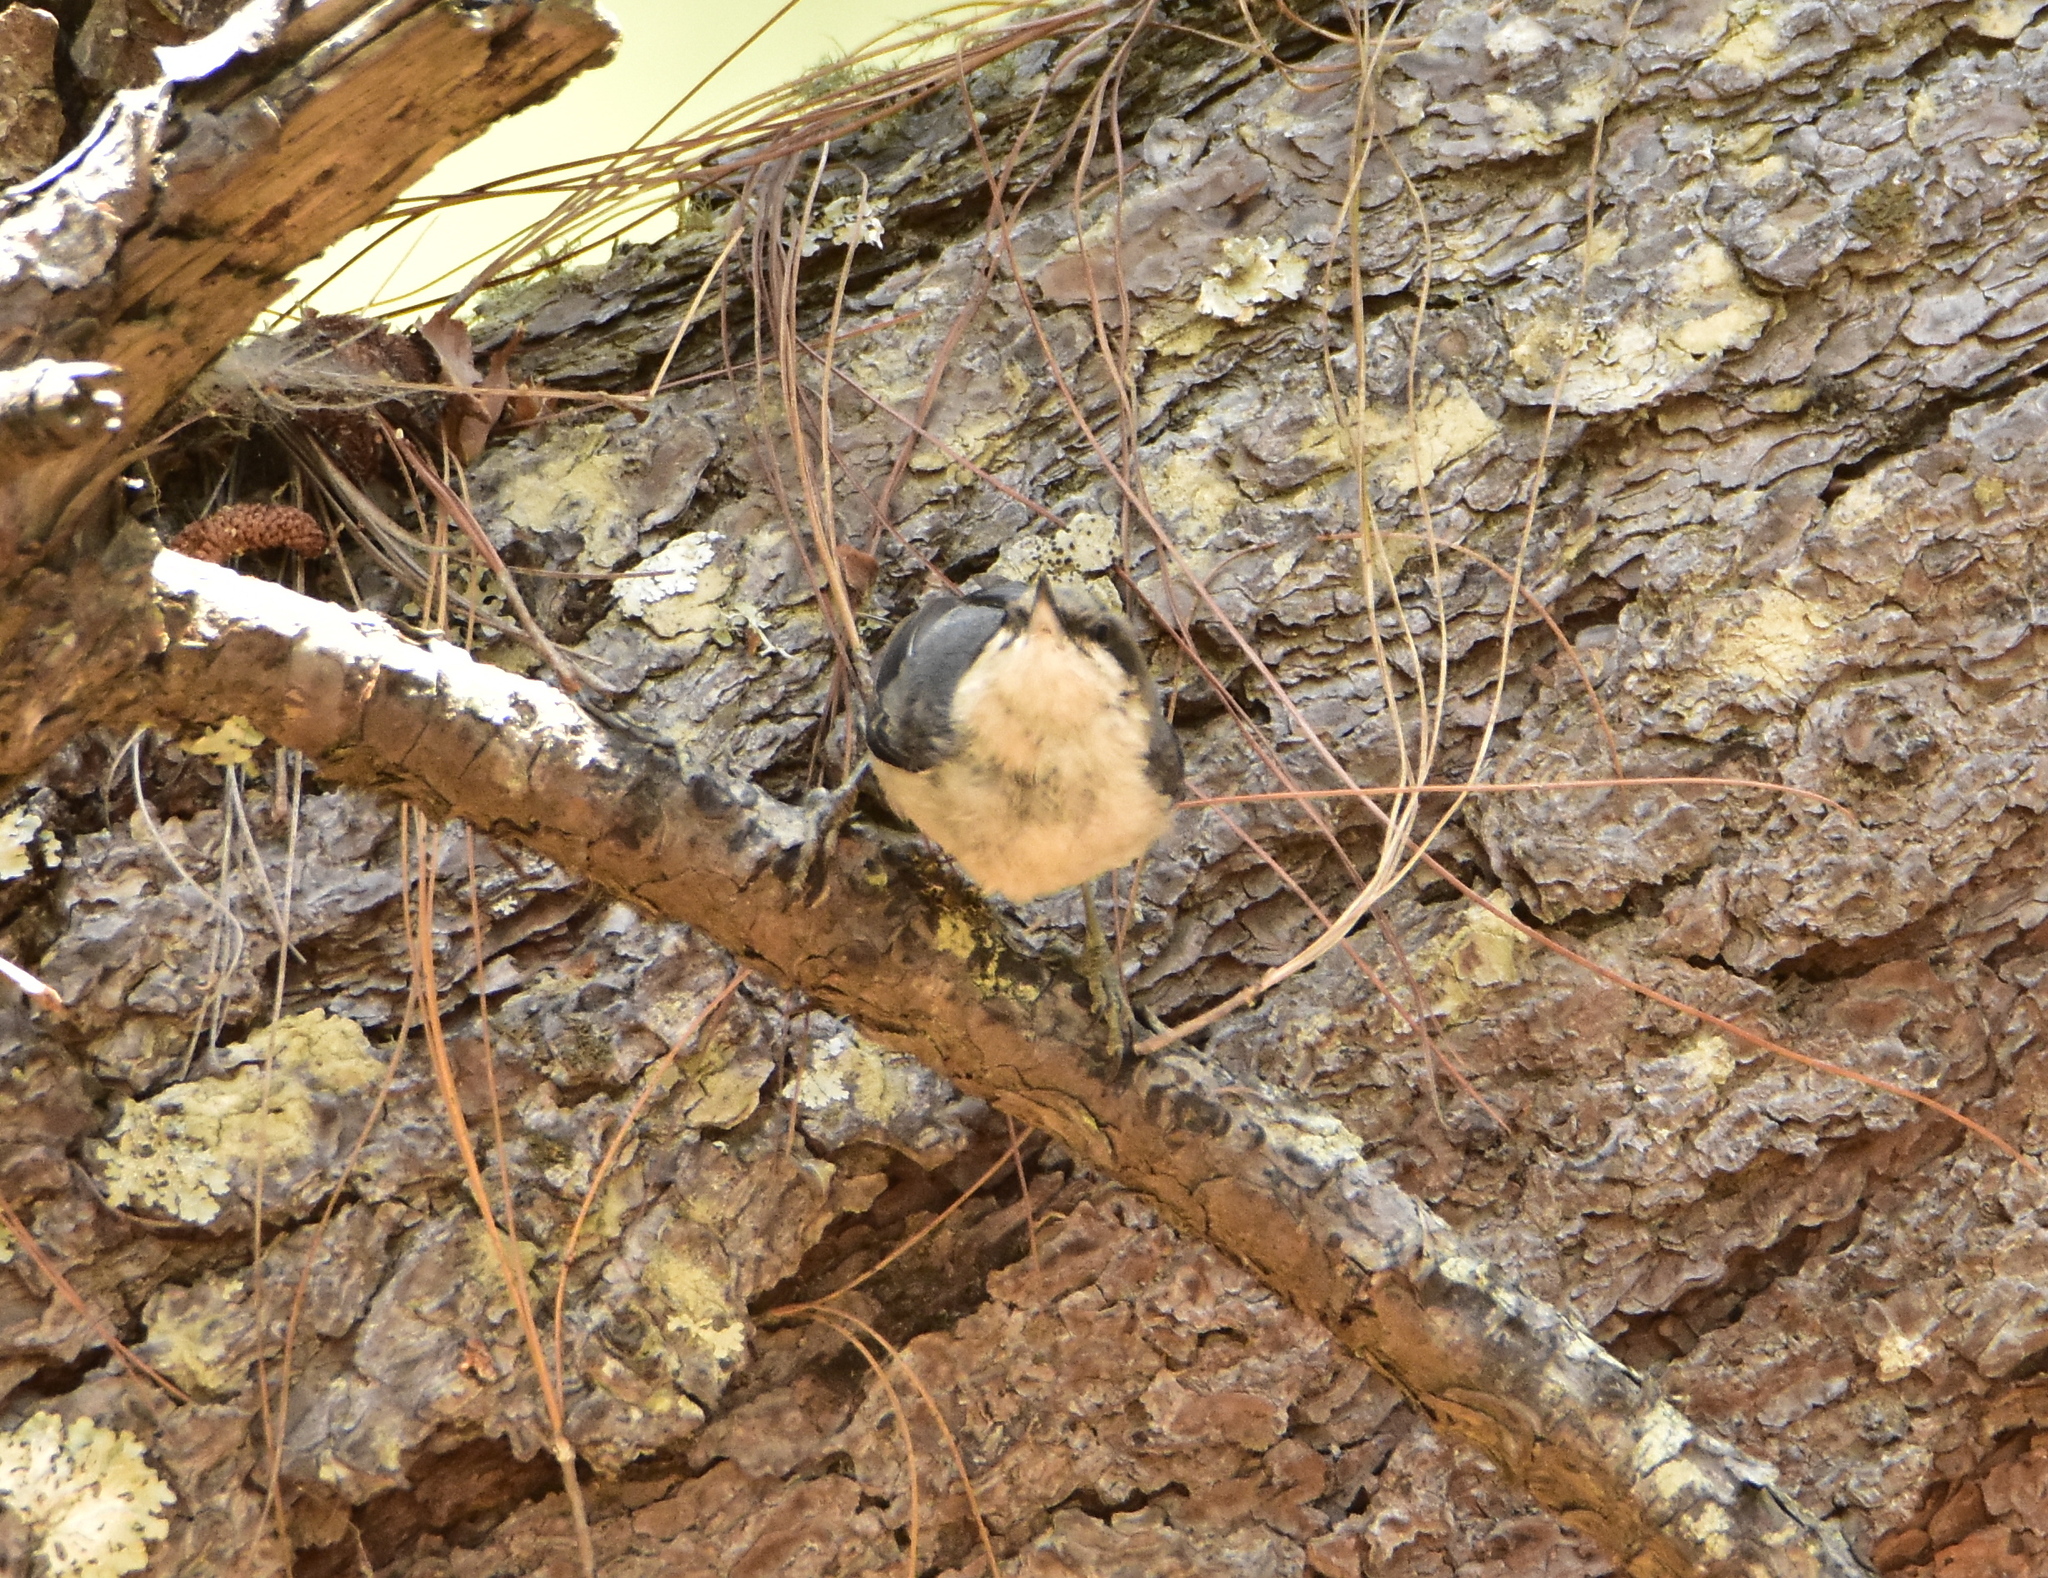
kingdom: Animalia
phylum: Chordata
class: Aves
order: Passeriformes
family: Sittidae
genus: Sitta
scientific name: Sitta pygmaea
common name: Pygmy nuthatch
